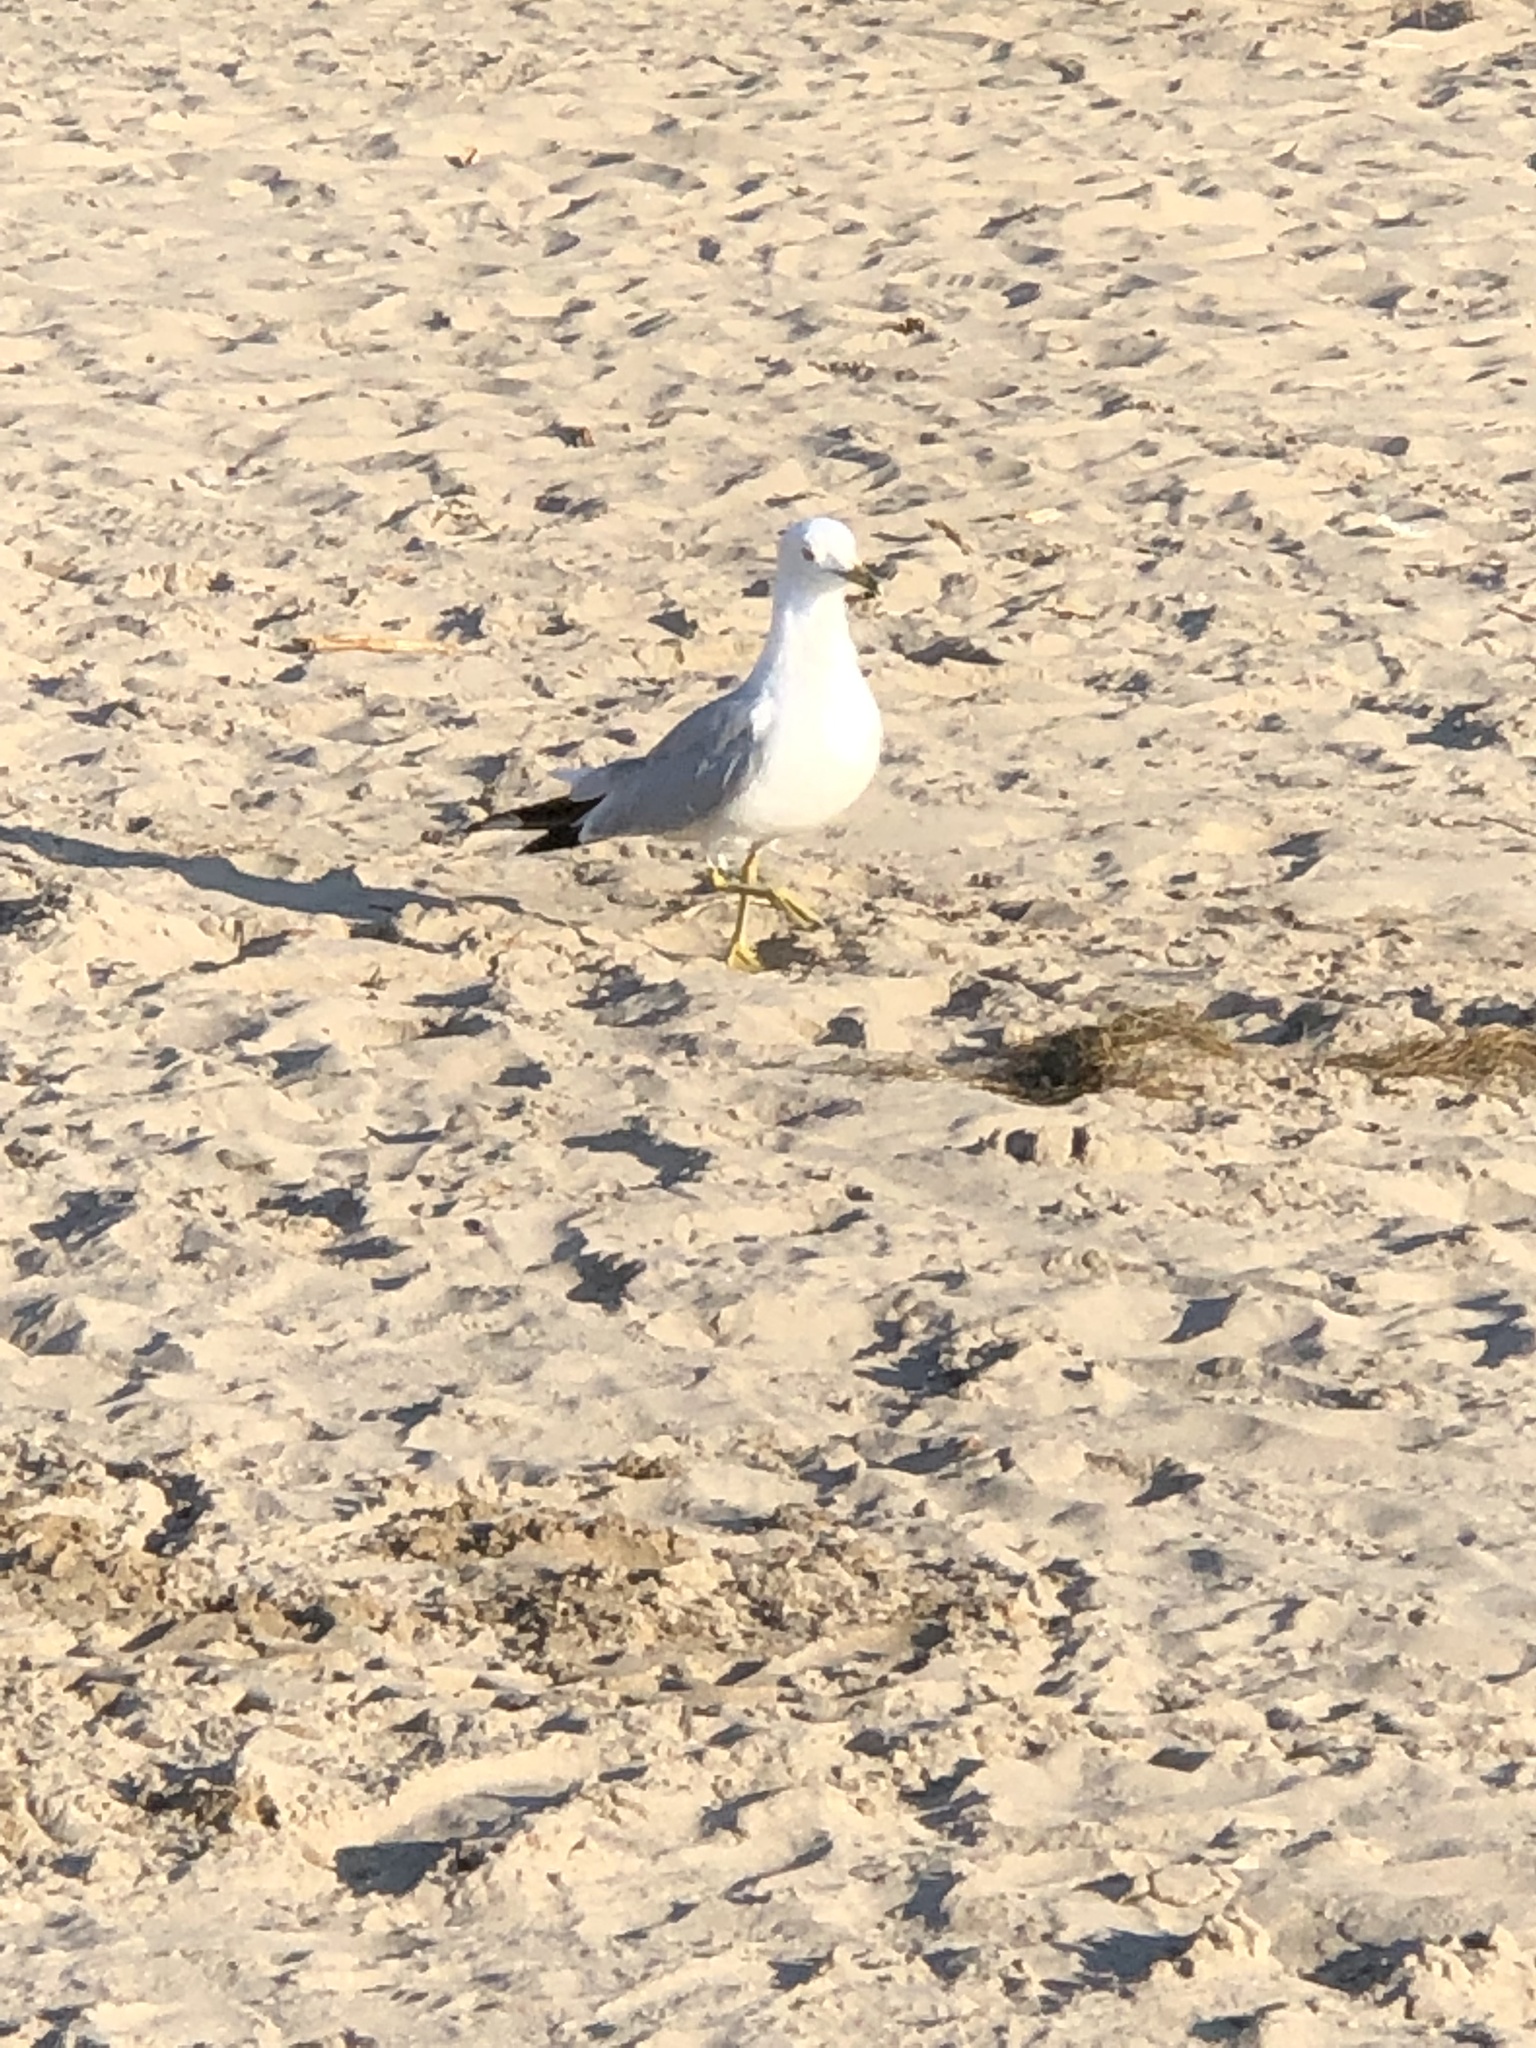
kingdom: Animalia
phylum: Chordata
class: Aves
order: Charadriiformes
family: Laridae
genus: Larus
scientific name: Larus delawarensis
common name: Ring-billed gull
